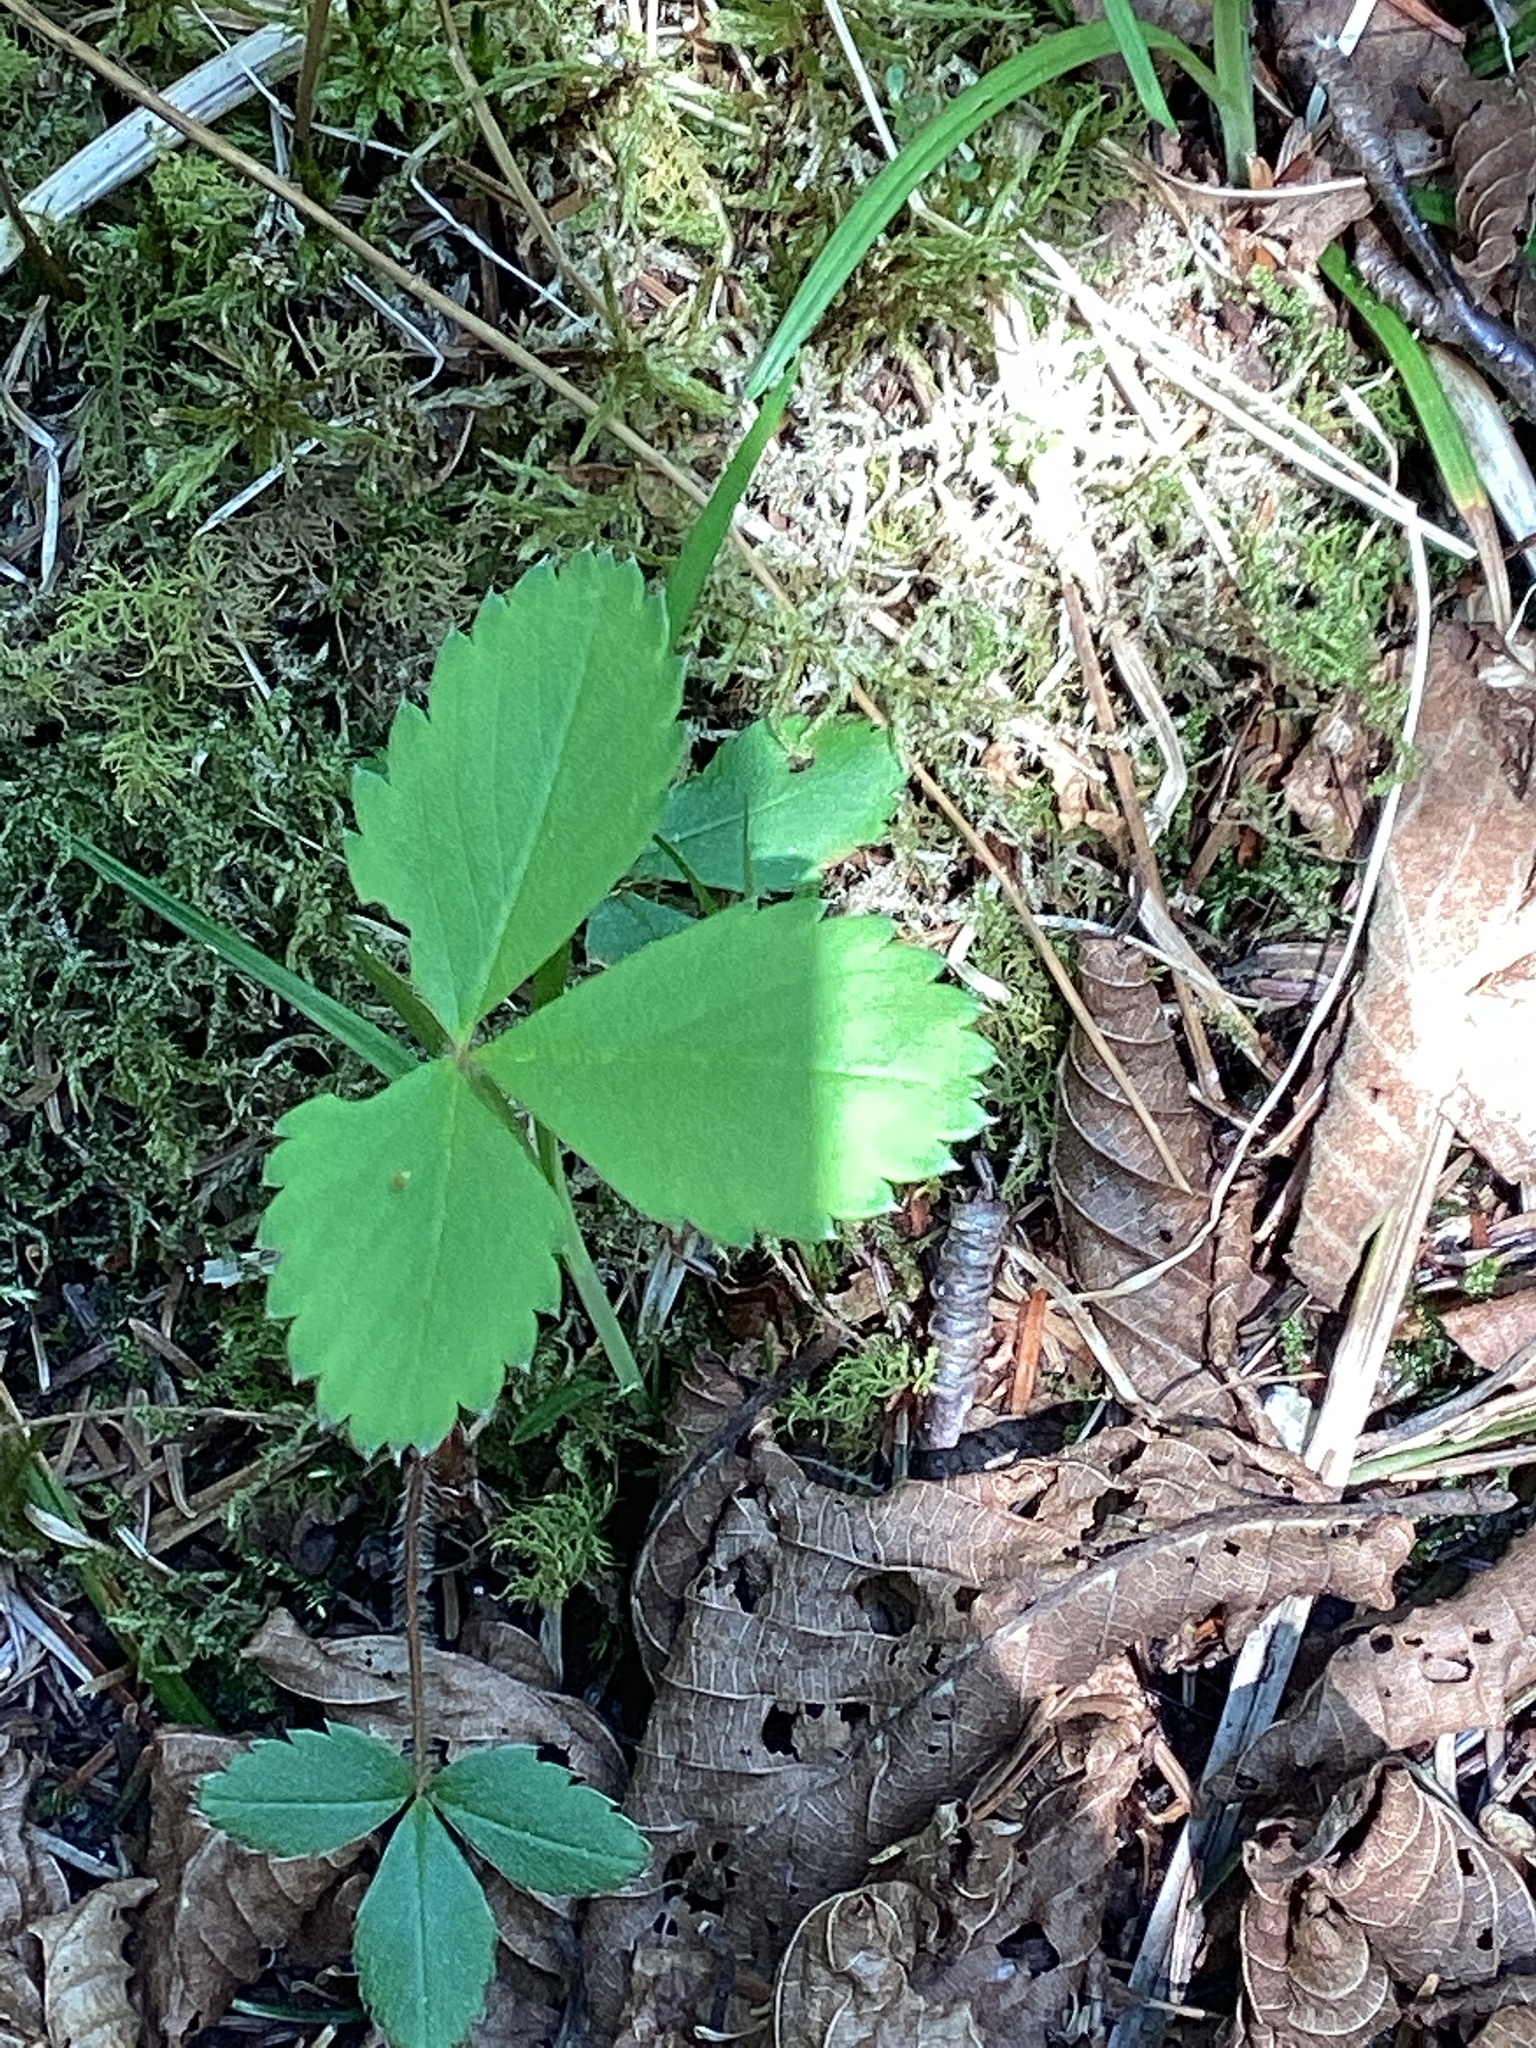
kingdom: Plantae
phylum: Tracheophyta
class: Magnoliopsida
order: Rosales
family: Rosaceae
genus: Fragaria
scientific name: Fragaria virginiana
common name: Thickleaved wild strawberry
